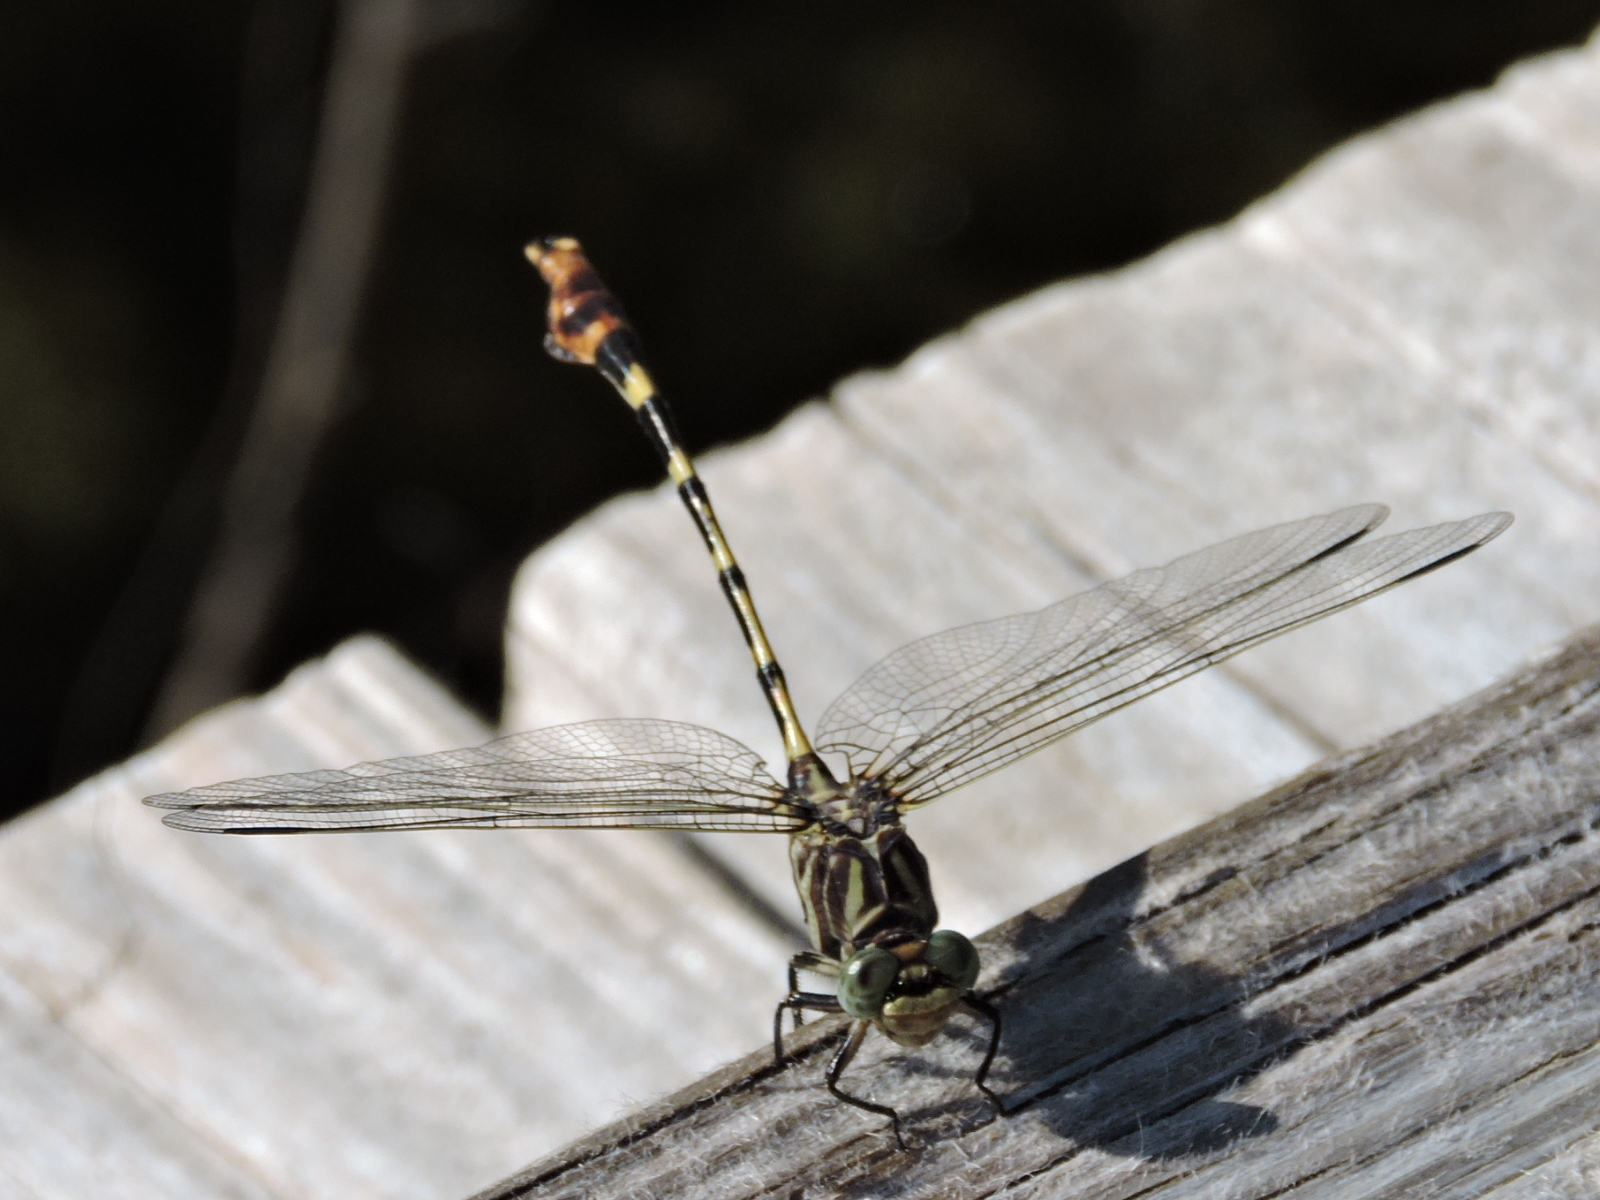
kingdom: Animalia
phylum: Arthropoda
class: Insecta
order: Odonata
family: Gomphidae
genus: Phyllogomphoides
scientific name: Phyllogomphoides stigmatus
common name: Four-striped leaftail
